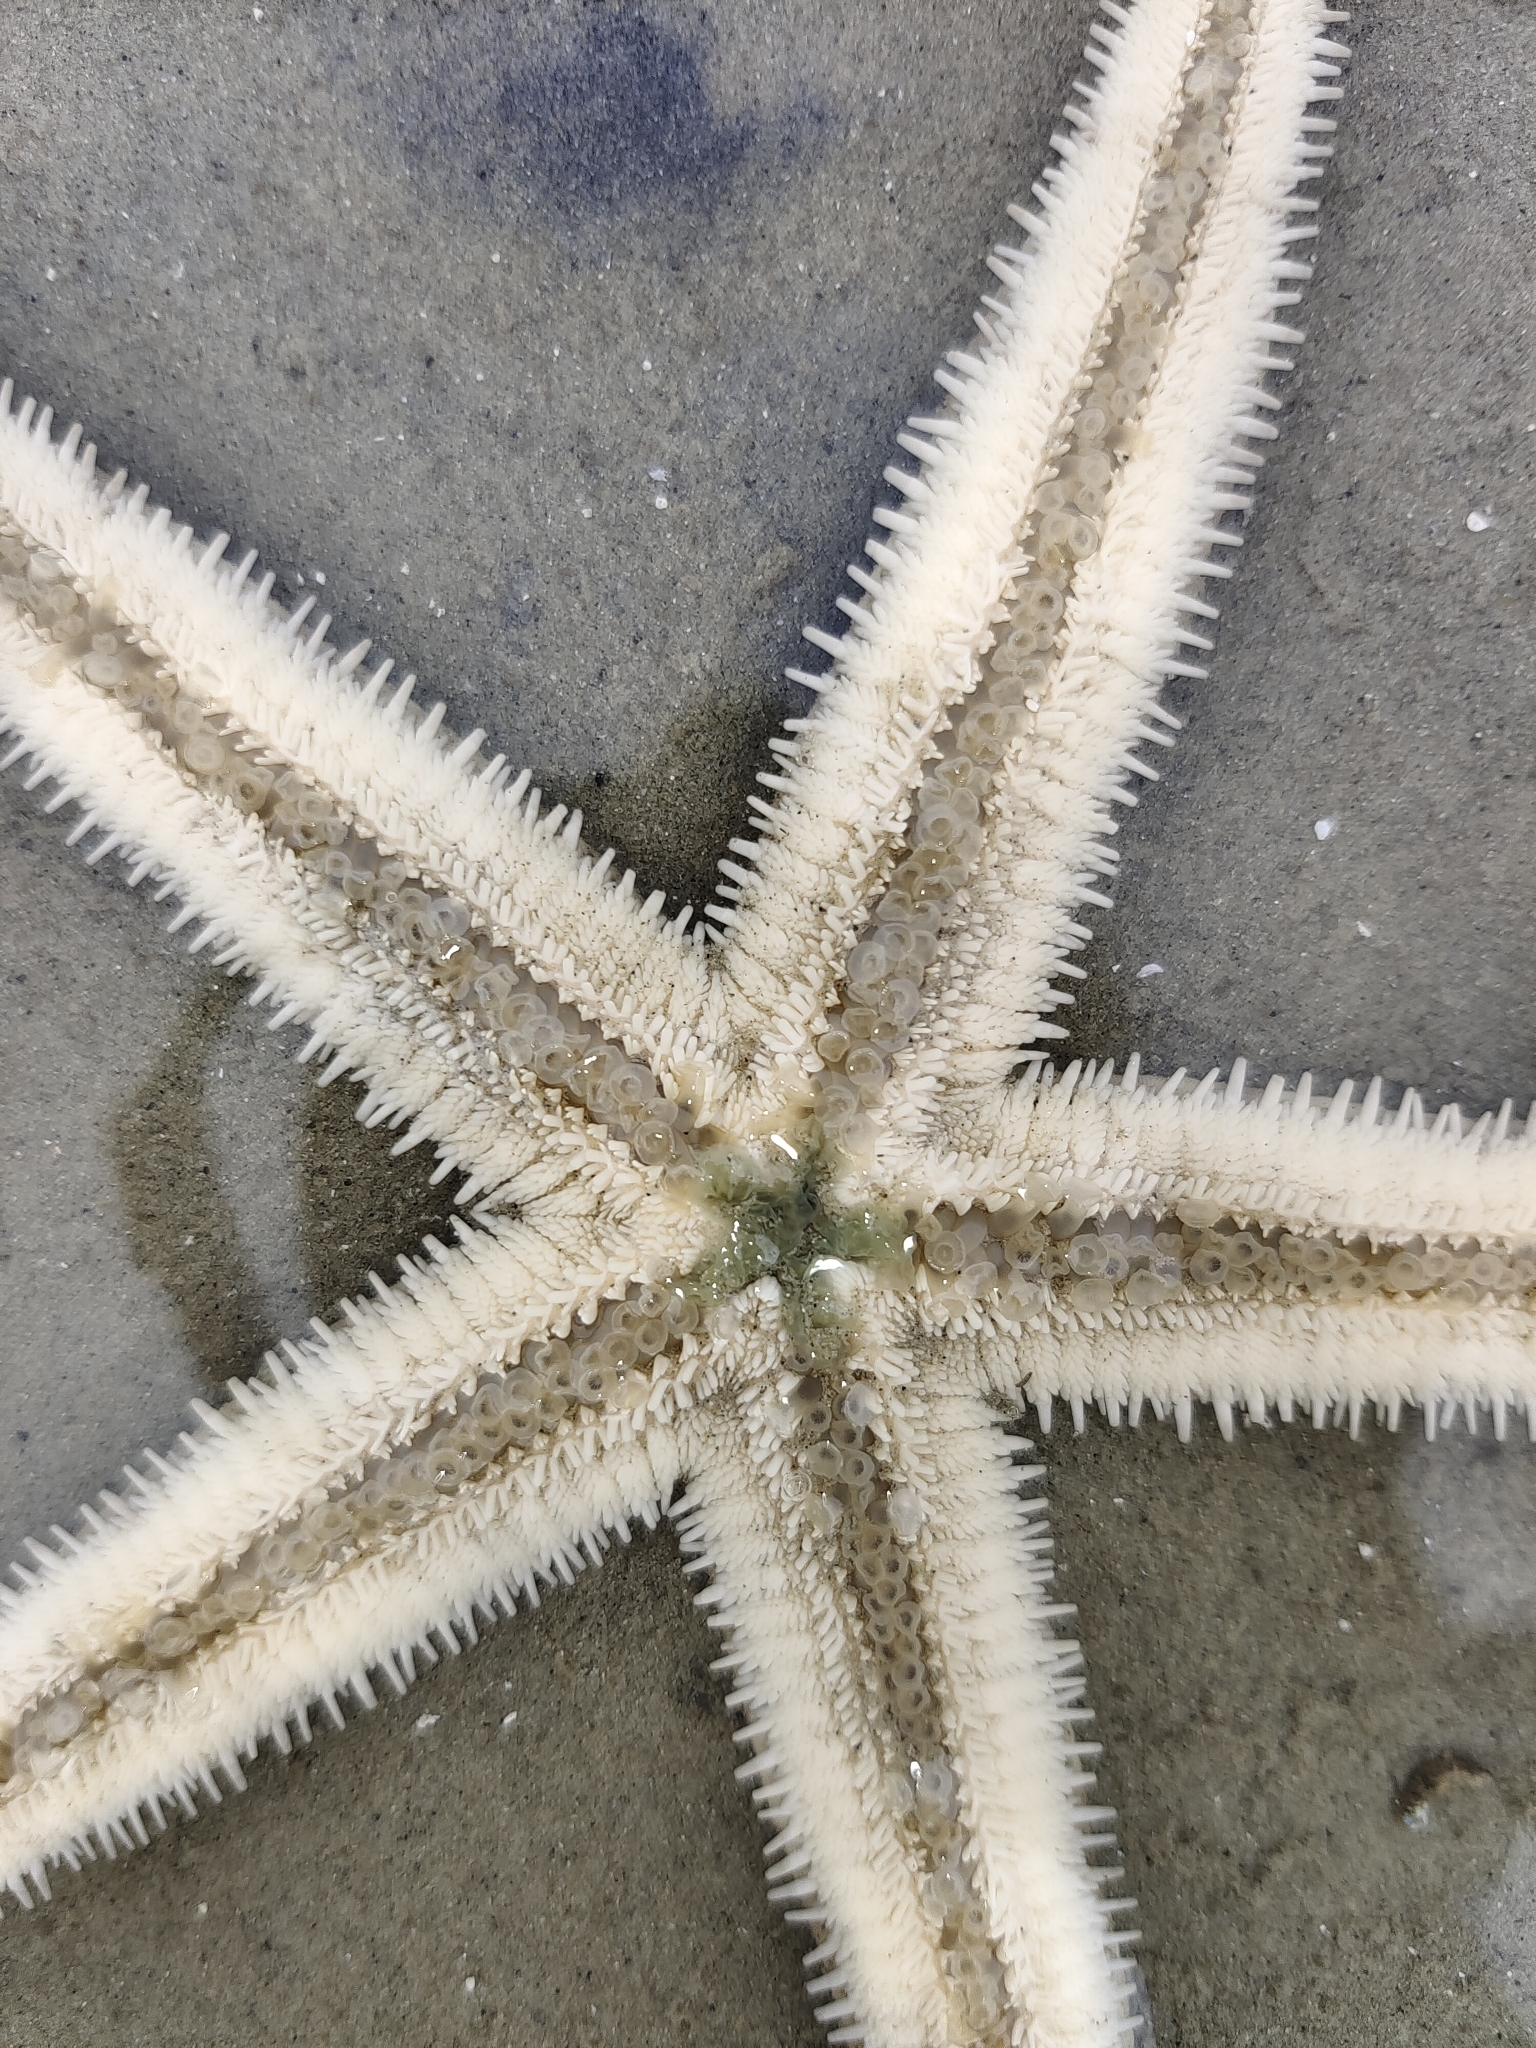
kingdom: Animalia
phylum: Echinodermata
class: Asteroidea
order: Valvatida
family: Archasteridae
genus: Archaster
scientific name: Archaster typicus
